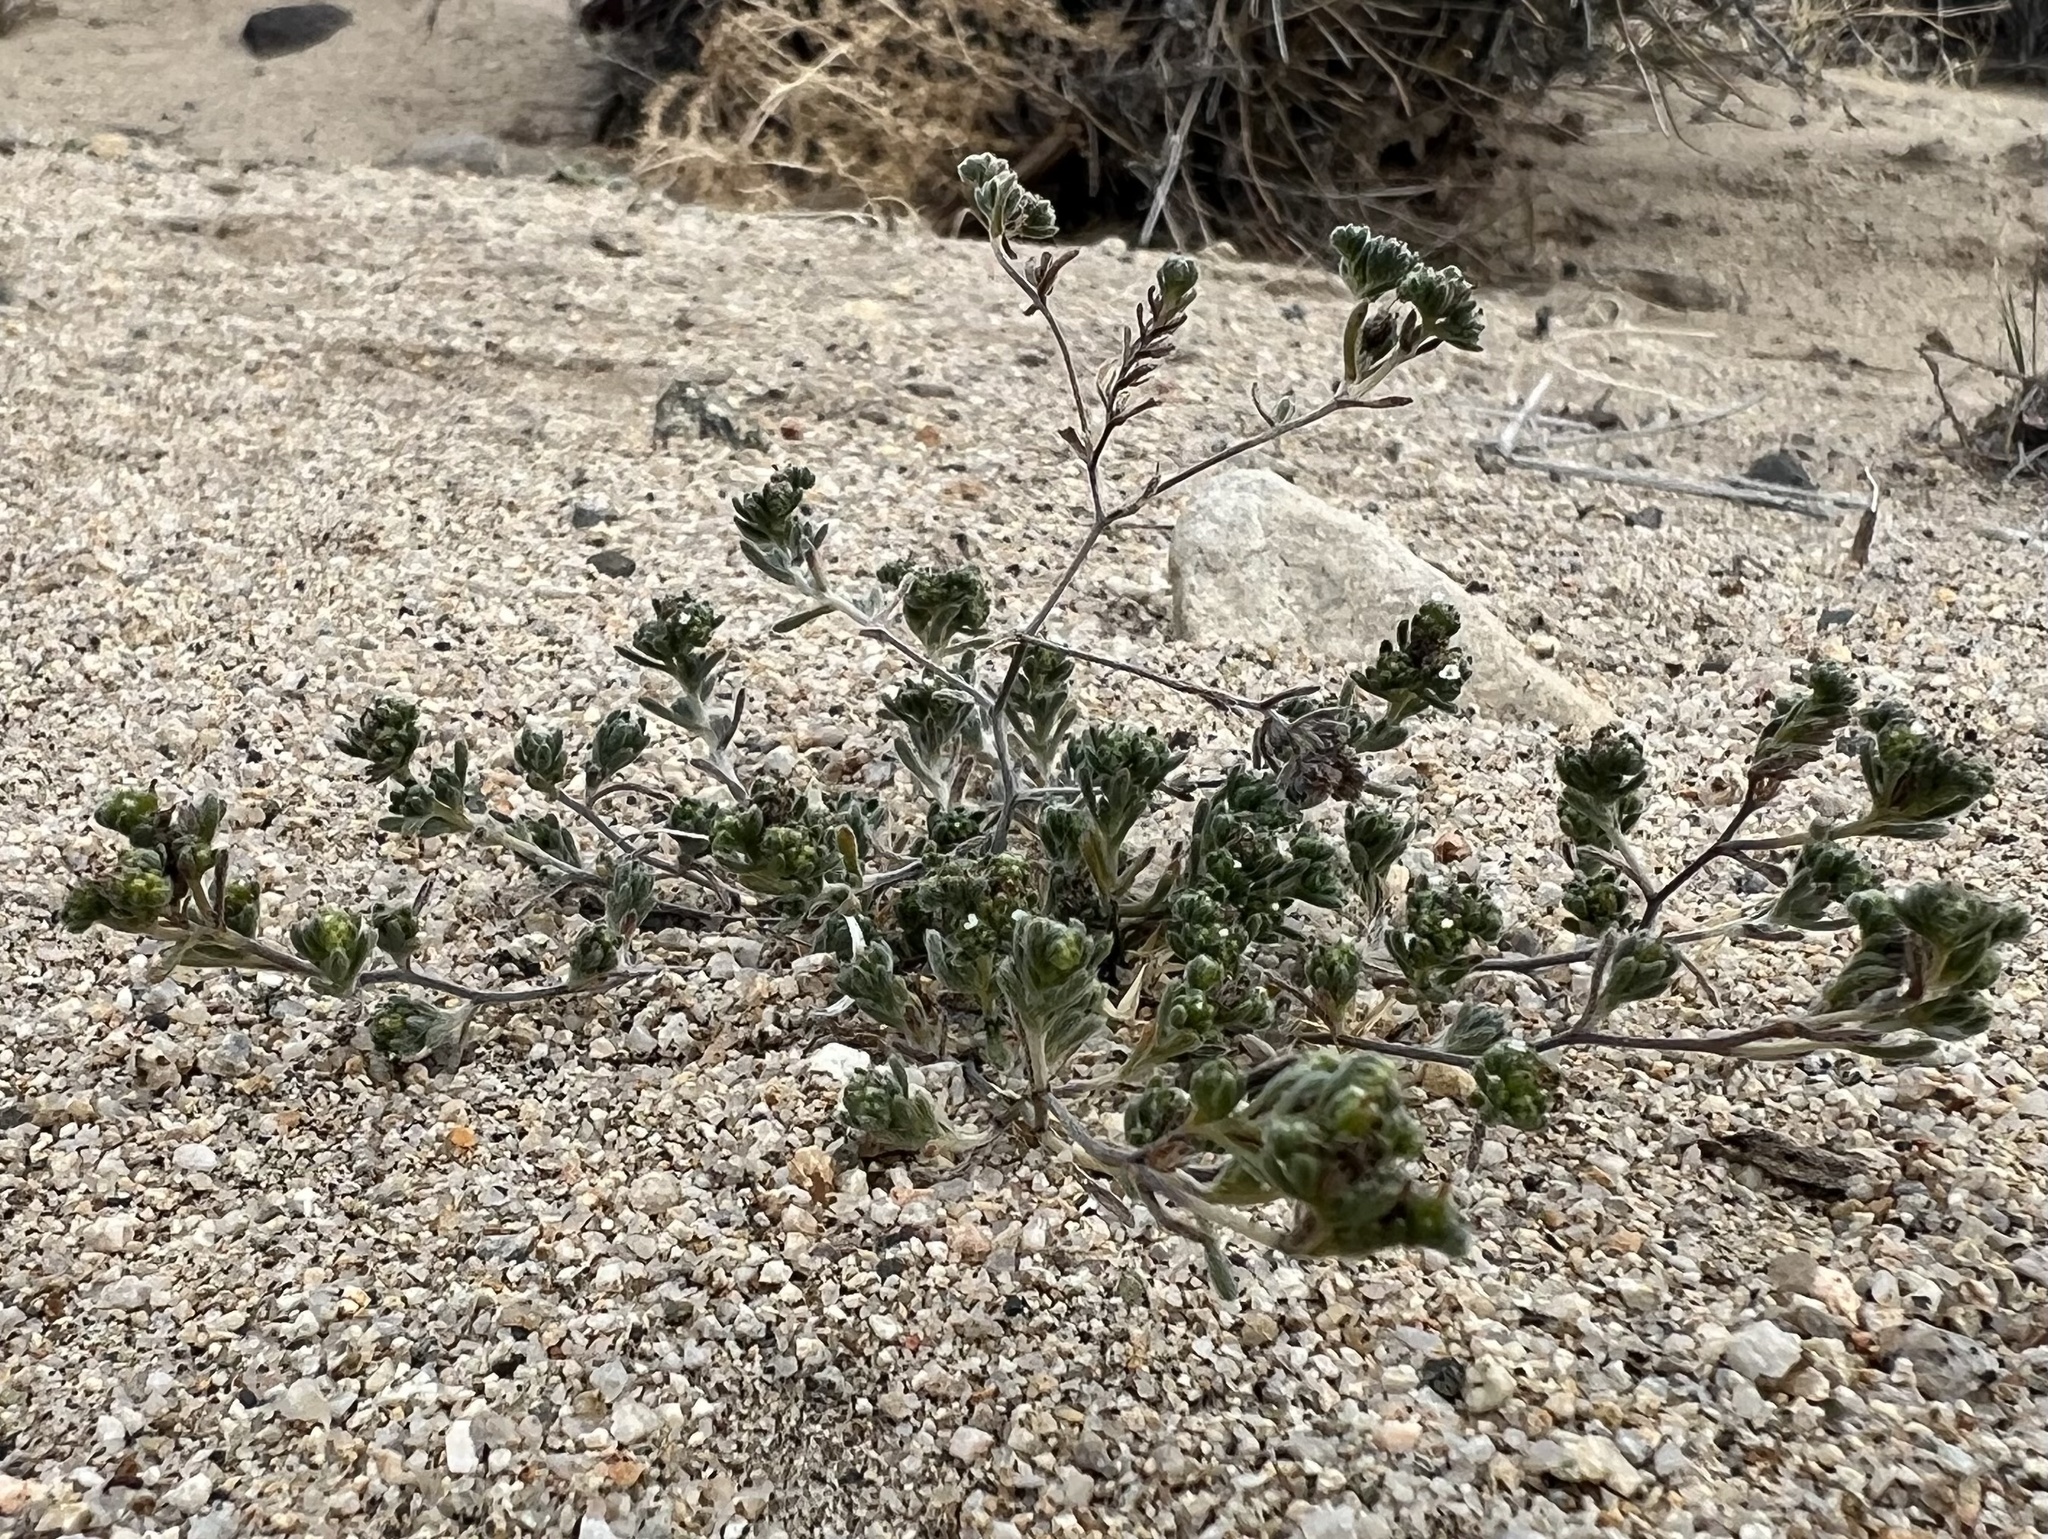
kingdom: Plantae
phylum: Tracheophyta
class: Magnoliopsida
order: Boraginales
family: Boraginaceae
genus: Eremocarya
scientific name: Eremocarya micrantha
